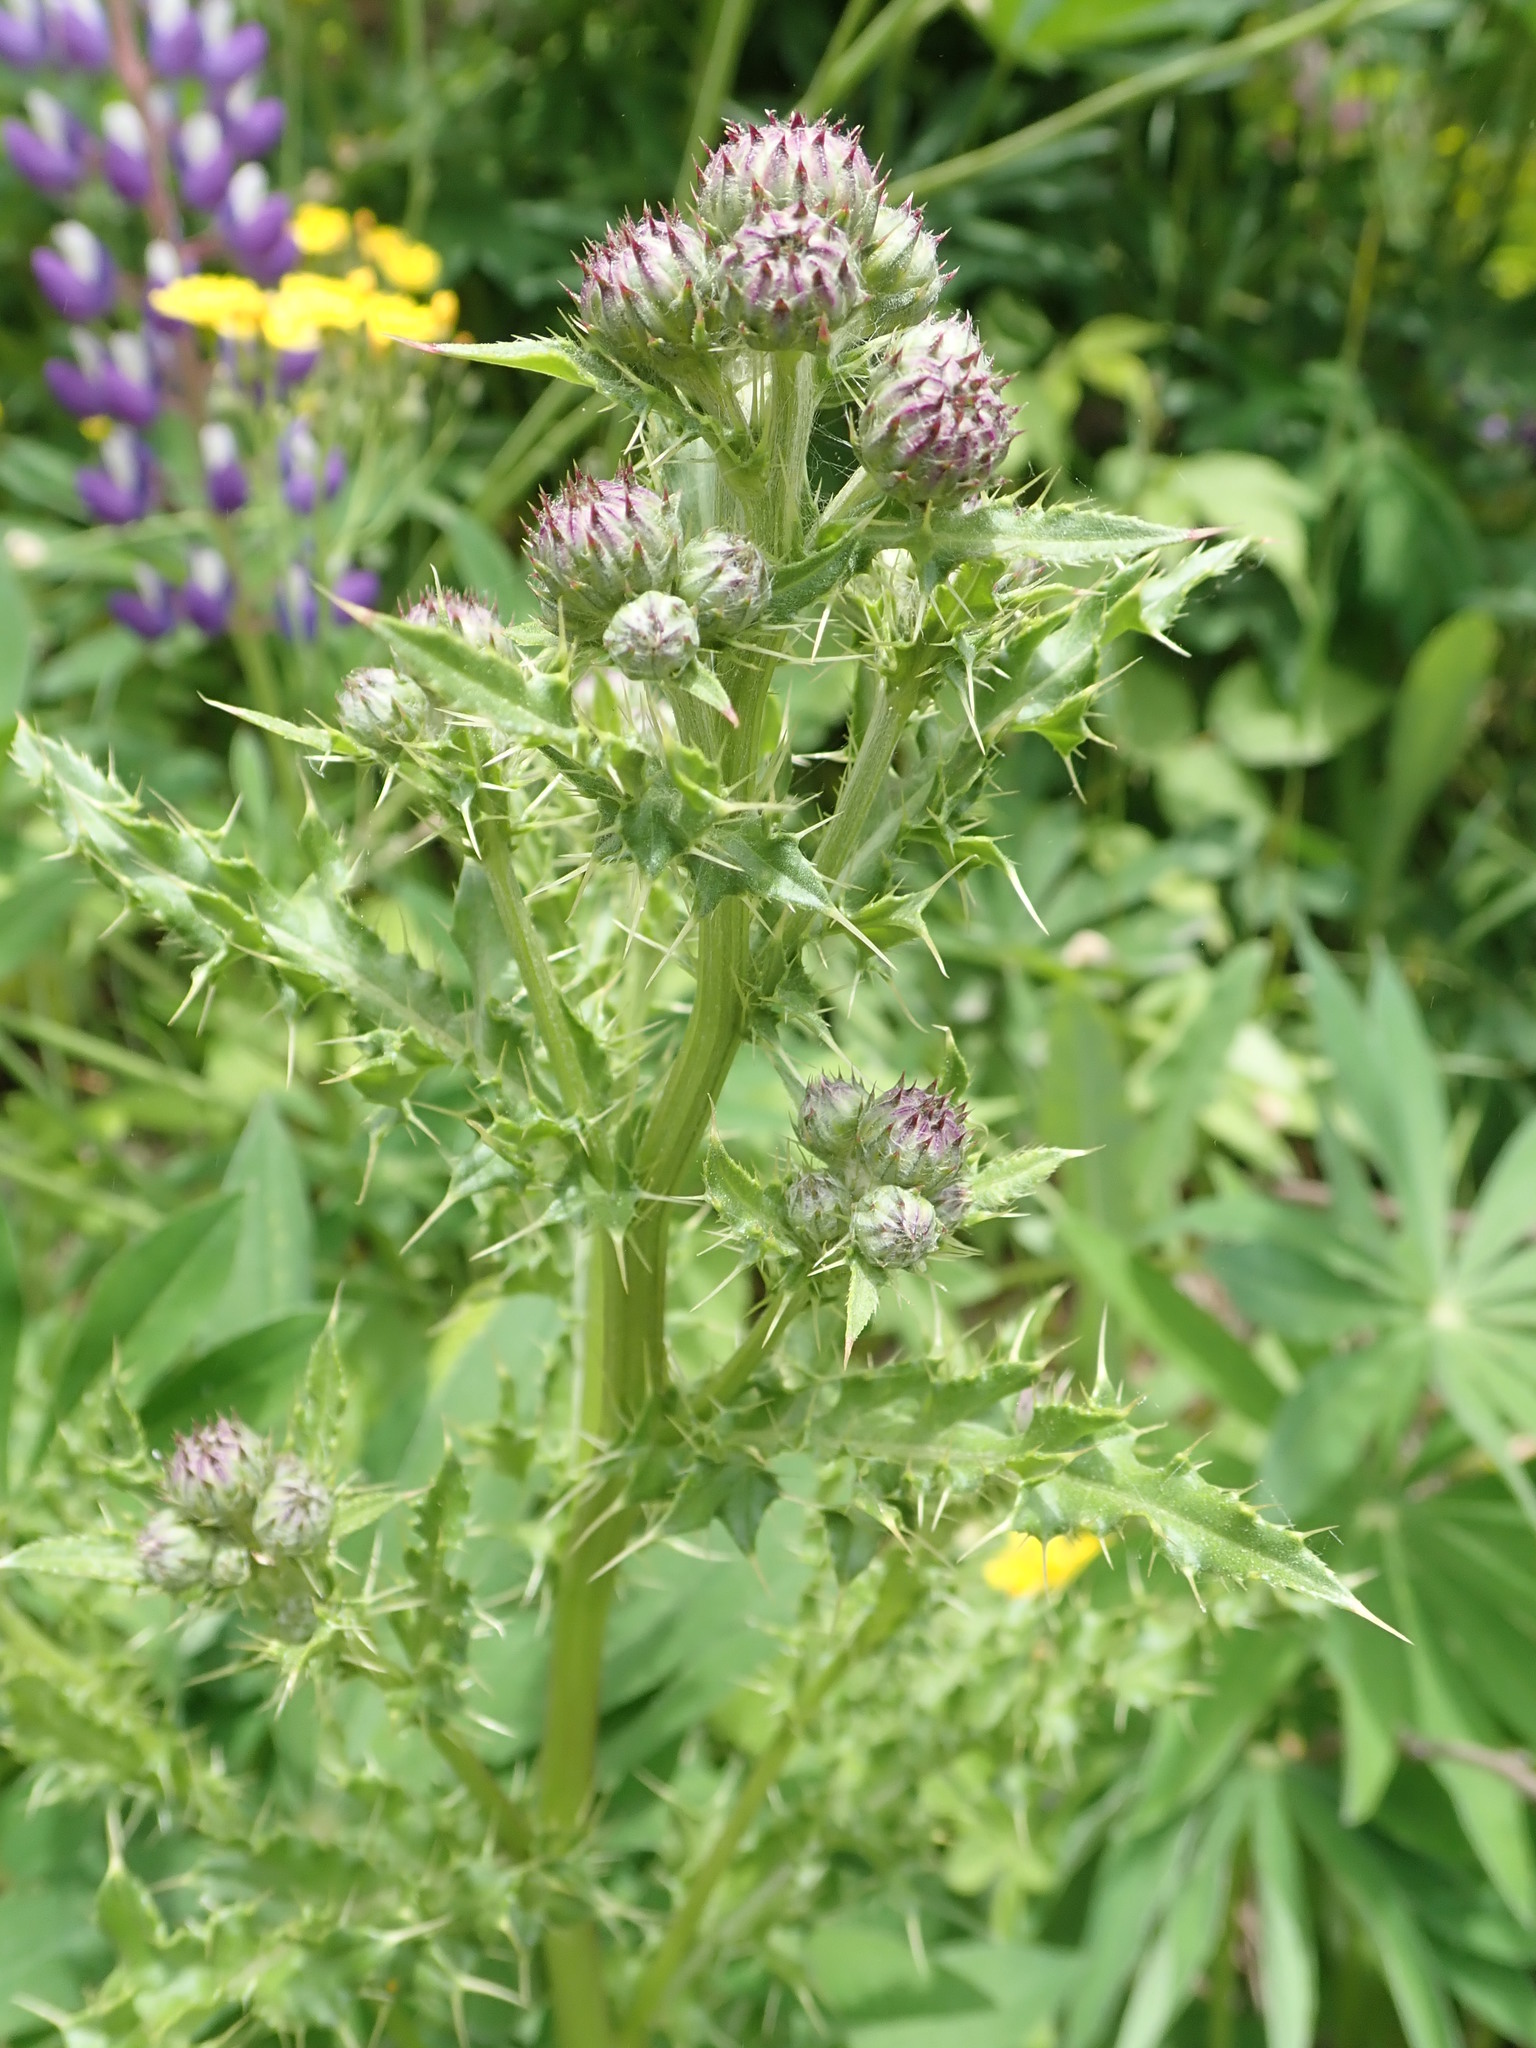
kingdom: Plantae
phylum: Tracheophyta
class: Magnoliopsida
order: Asterales
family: Asteraceae
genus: Cirsium
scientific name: Cirsium arvense
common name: Creeping thistle
